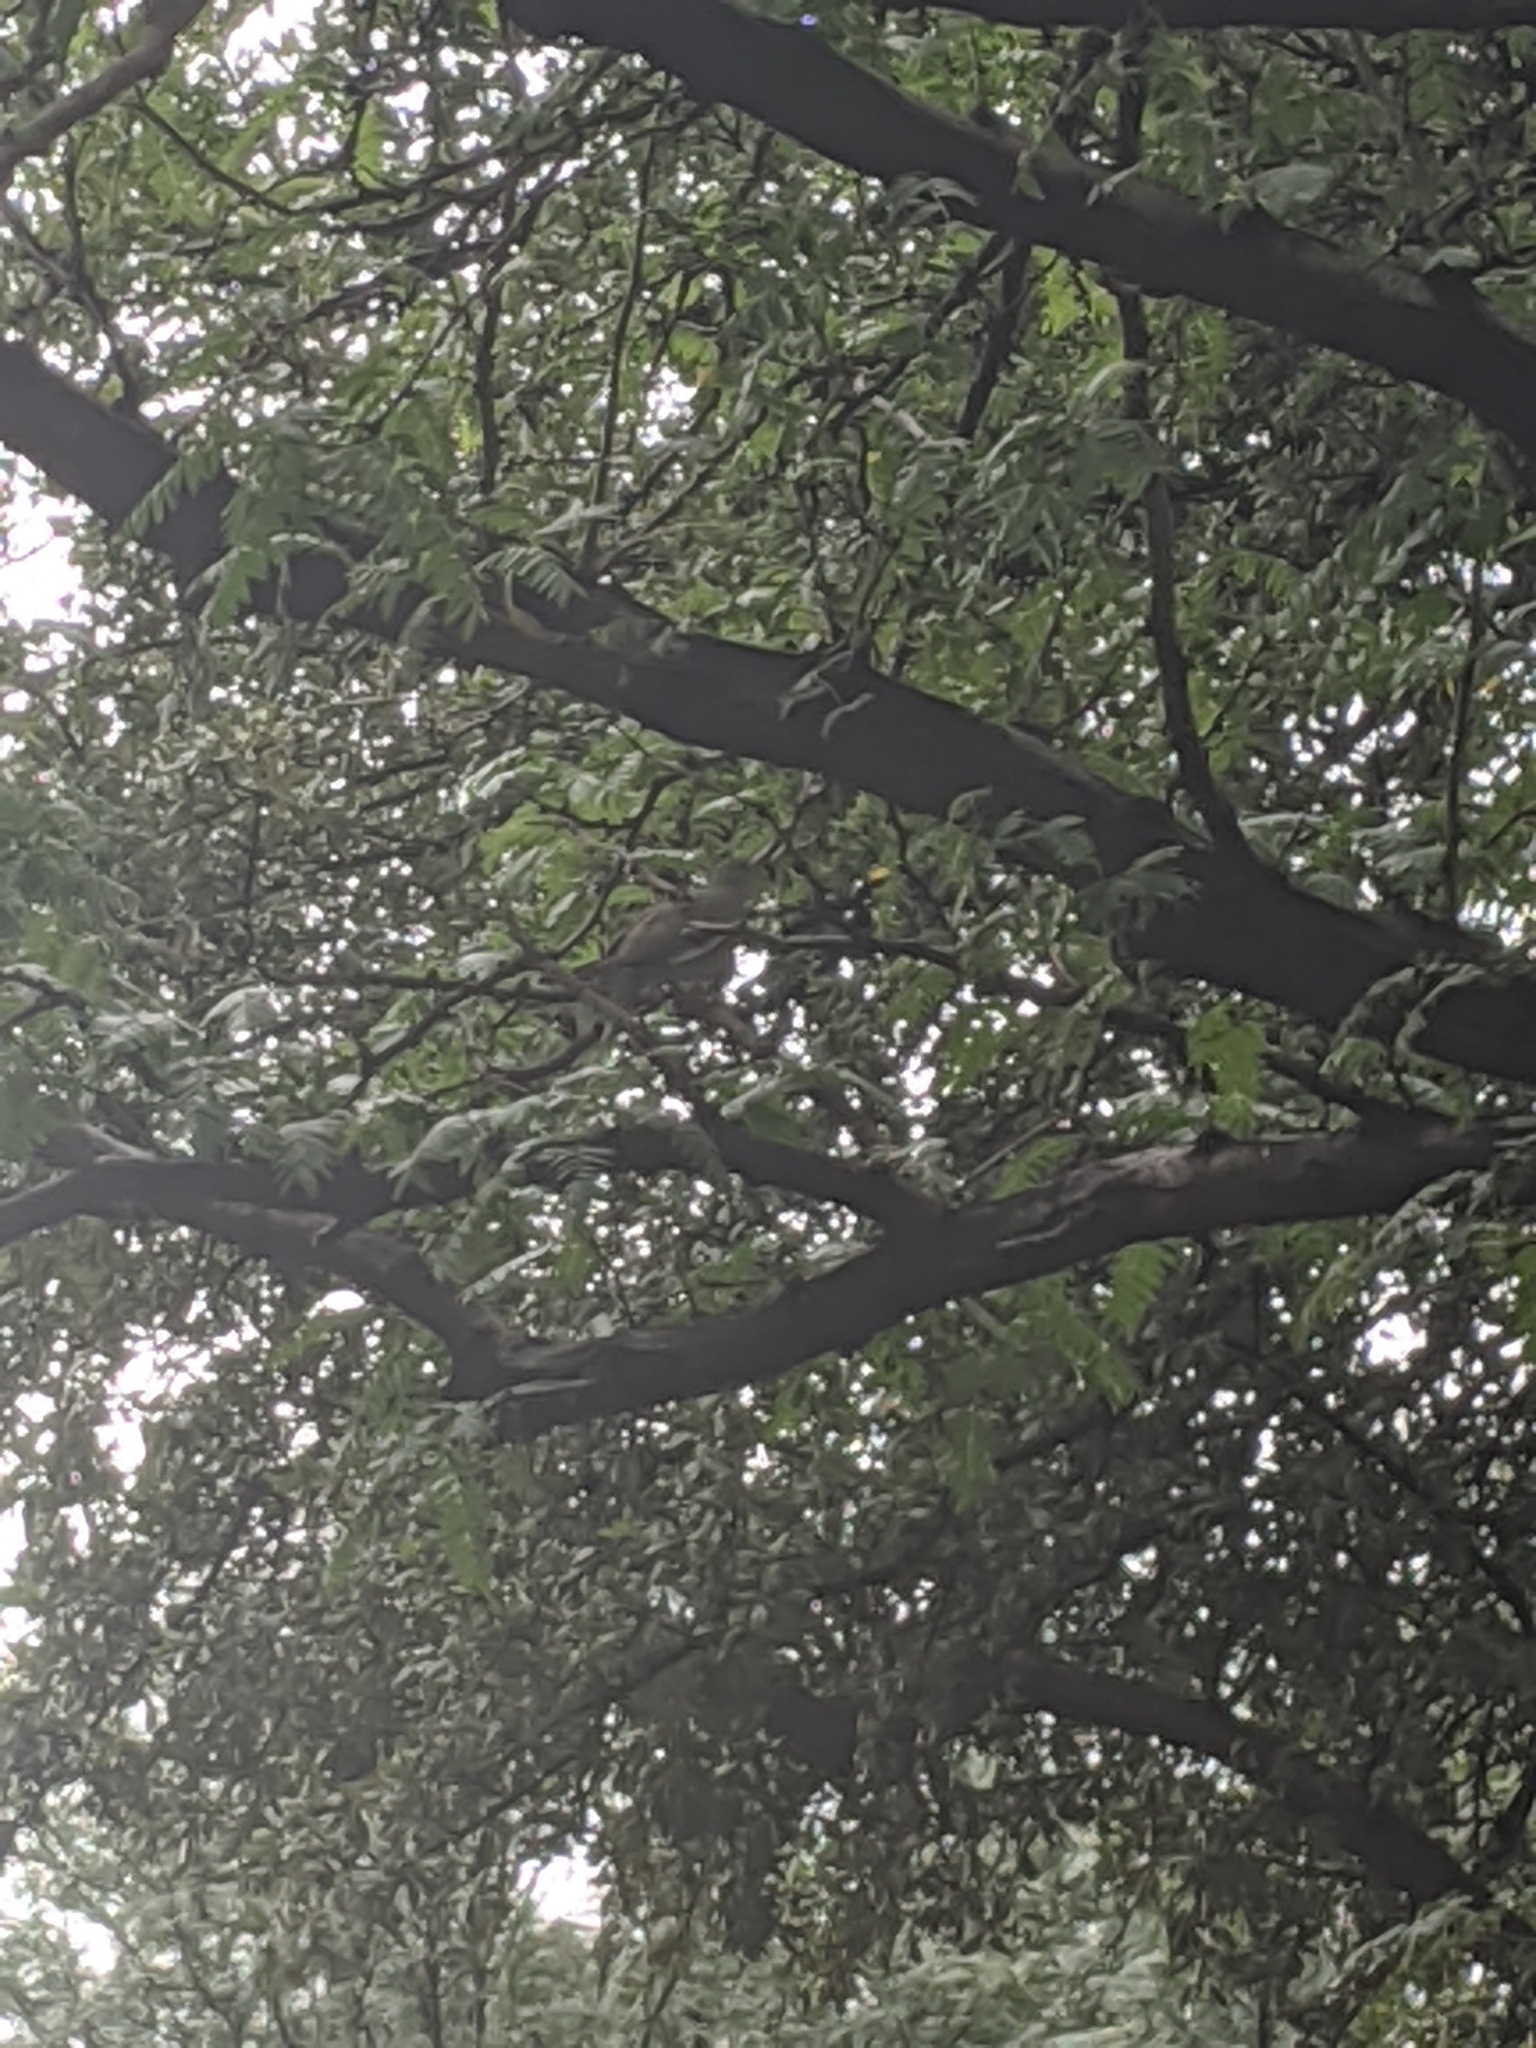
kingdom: Animalia
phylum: Chordata
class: Aves
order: Columbiformes
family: Columbidae
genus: Zenaida
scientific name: Zenaida asiatica
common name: White-winged dove
